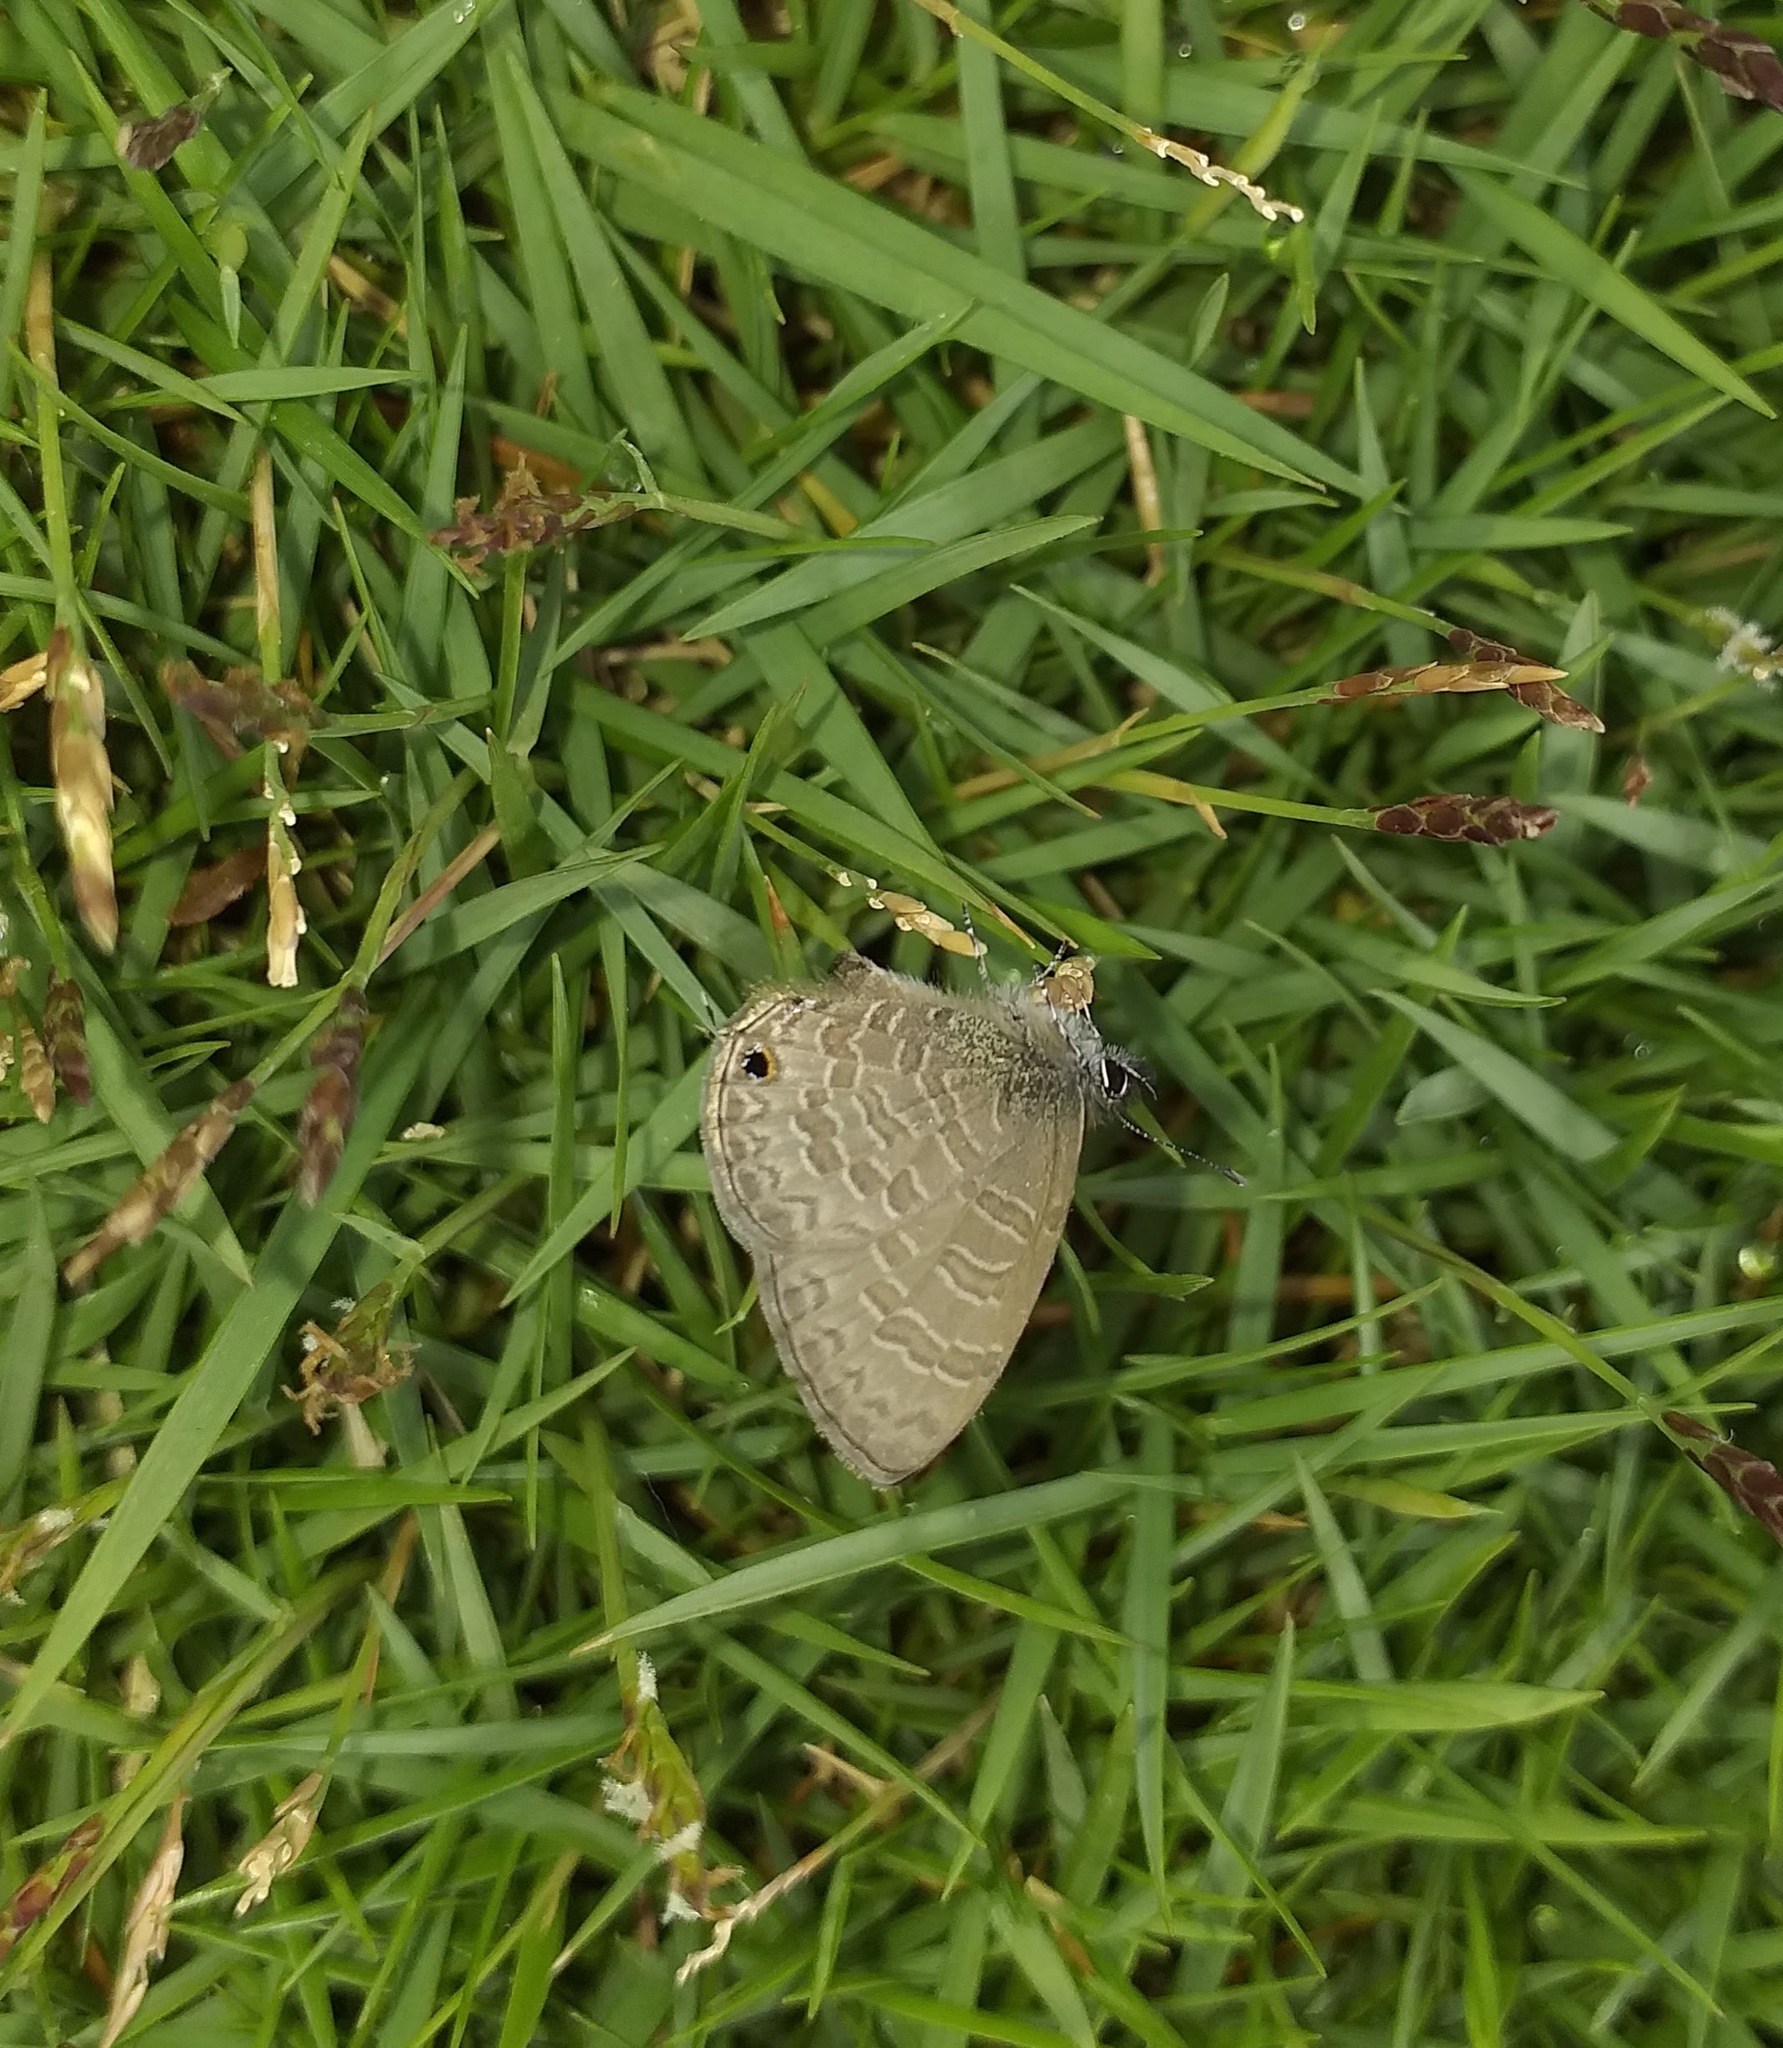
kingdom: Animalia
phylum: Arthropoda
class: Insecta
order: Lepidoptera
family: Lycaenidae
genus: Prosotas
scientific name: Prosotas nora
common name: Common line blue
